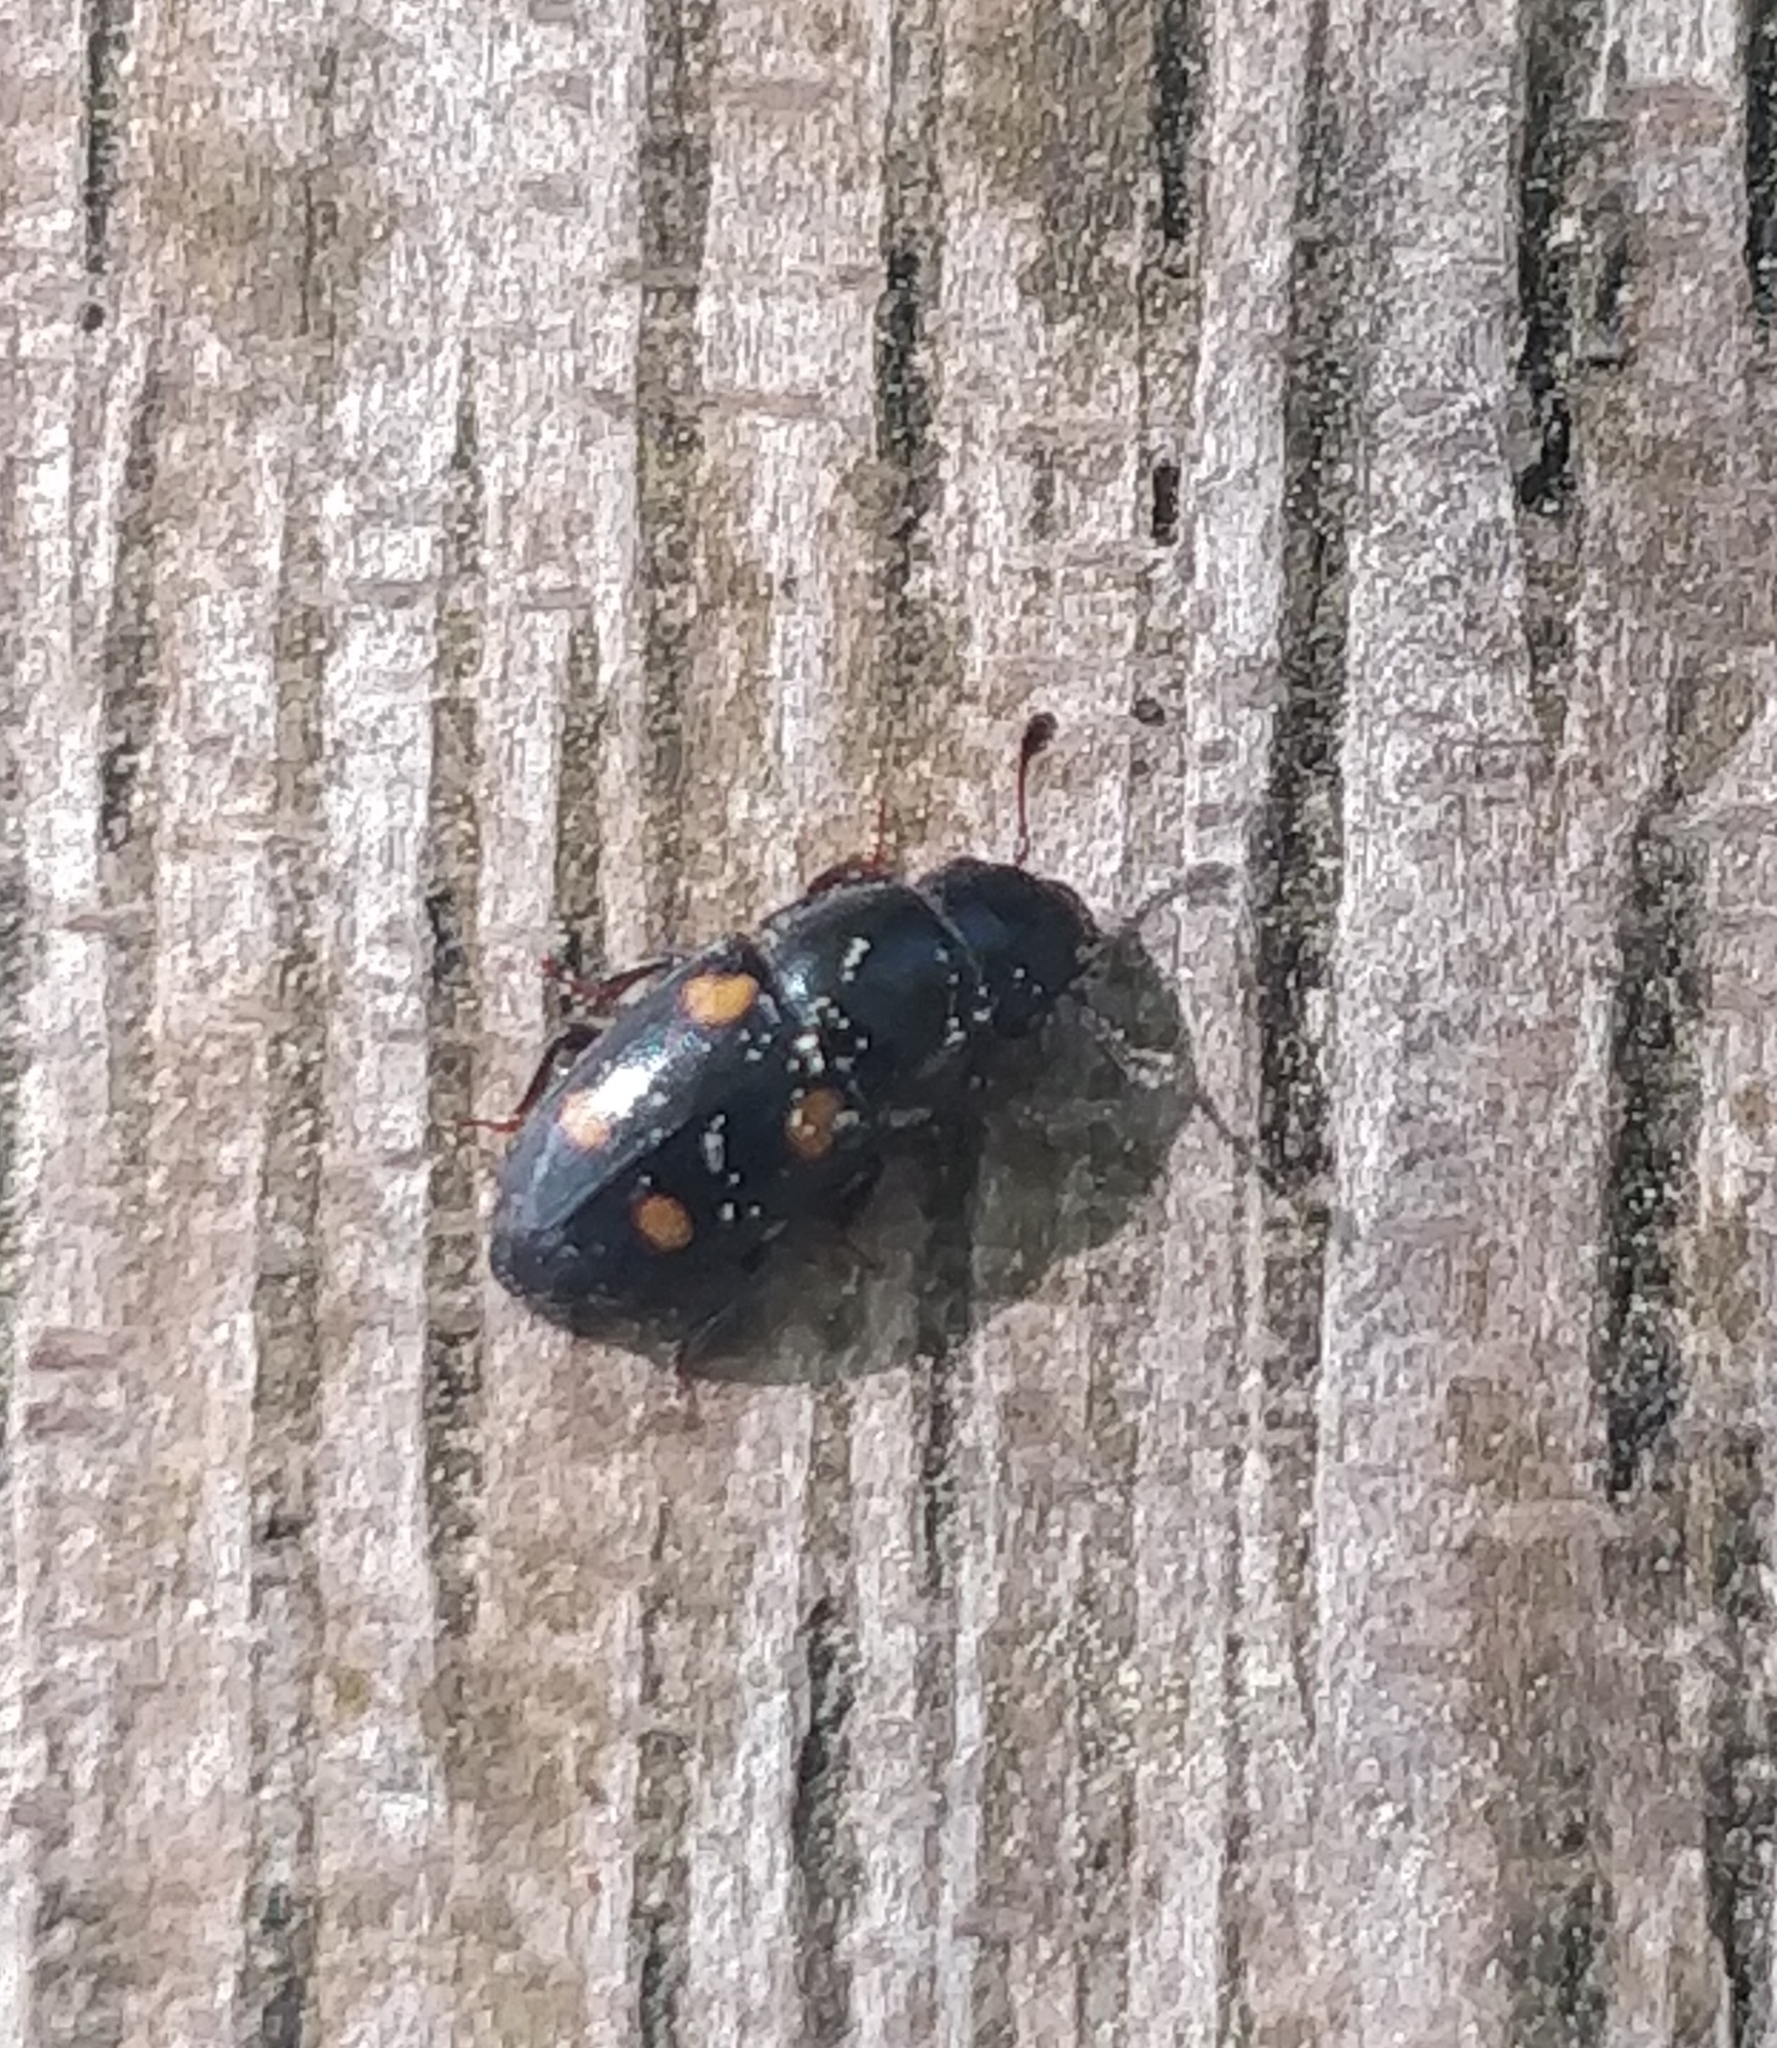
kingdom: Animalia
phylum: Arthropoda
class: Insecta
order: Coleoptera
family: Nitidulidae
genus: Glischrochilus
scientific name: Glischrochilus hortensis
